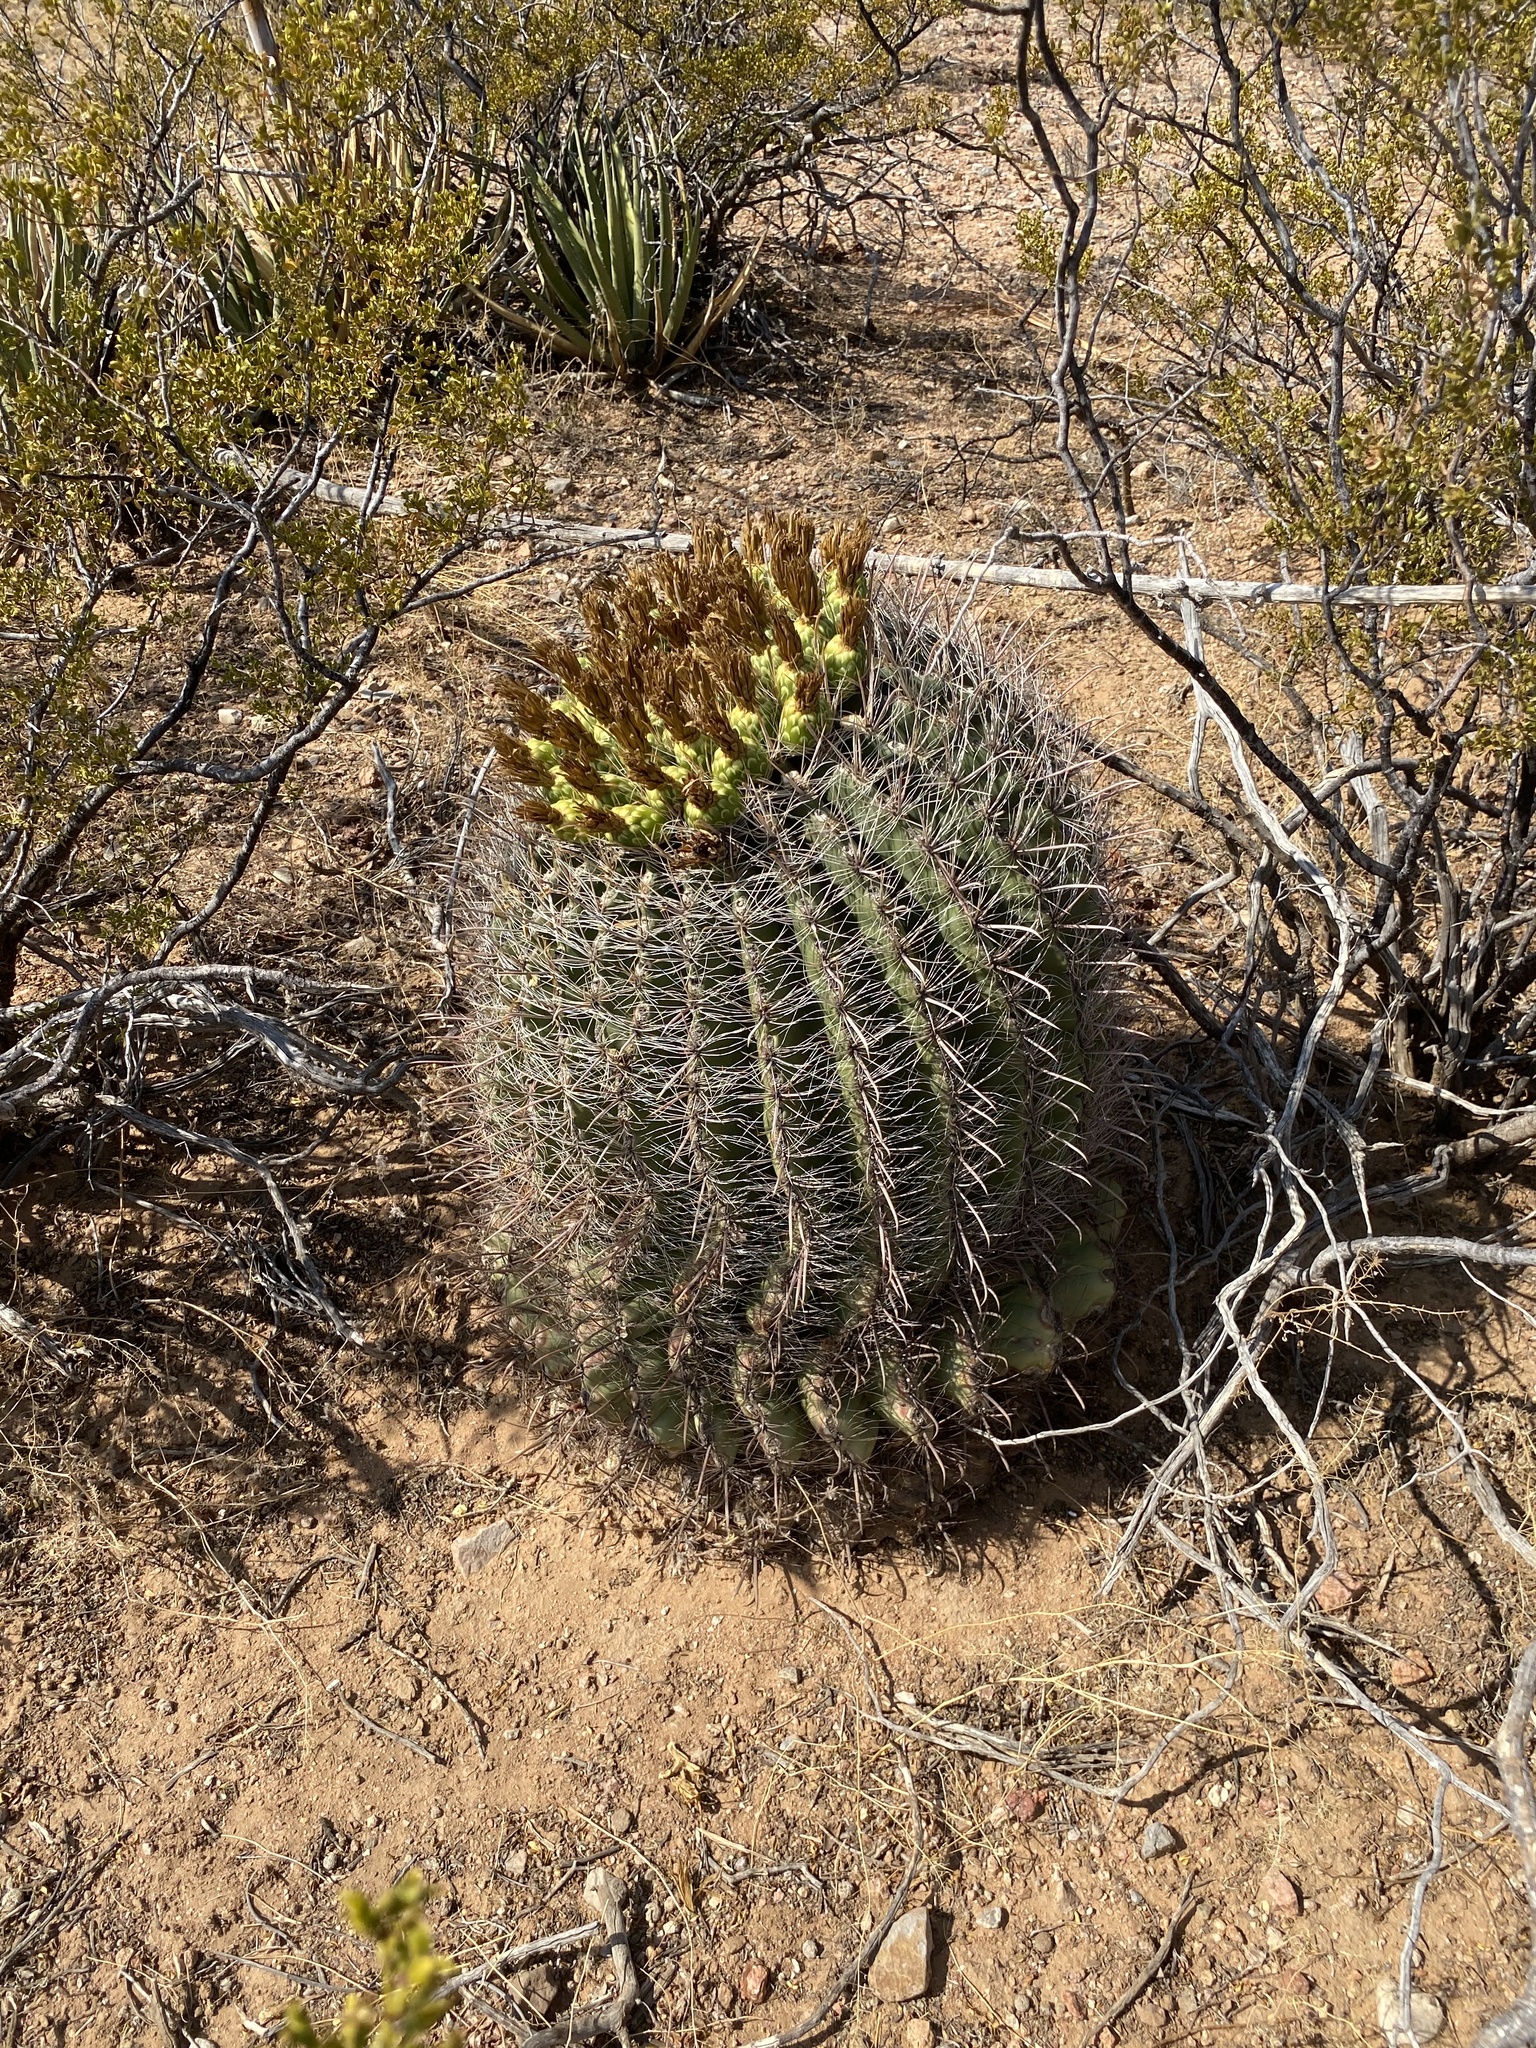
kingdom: Plantae
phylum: Tracheophyta
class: Magnoliopsida
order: Caryophyllales
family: Cactaceae
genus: Ferocactus
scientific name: Ferocactus wislizeni
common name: Candy barrel cactus
